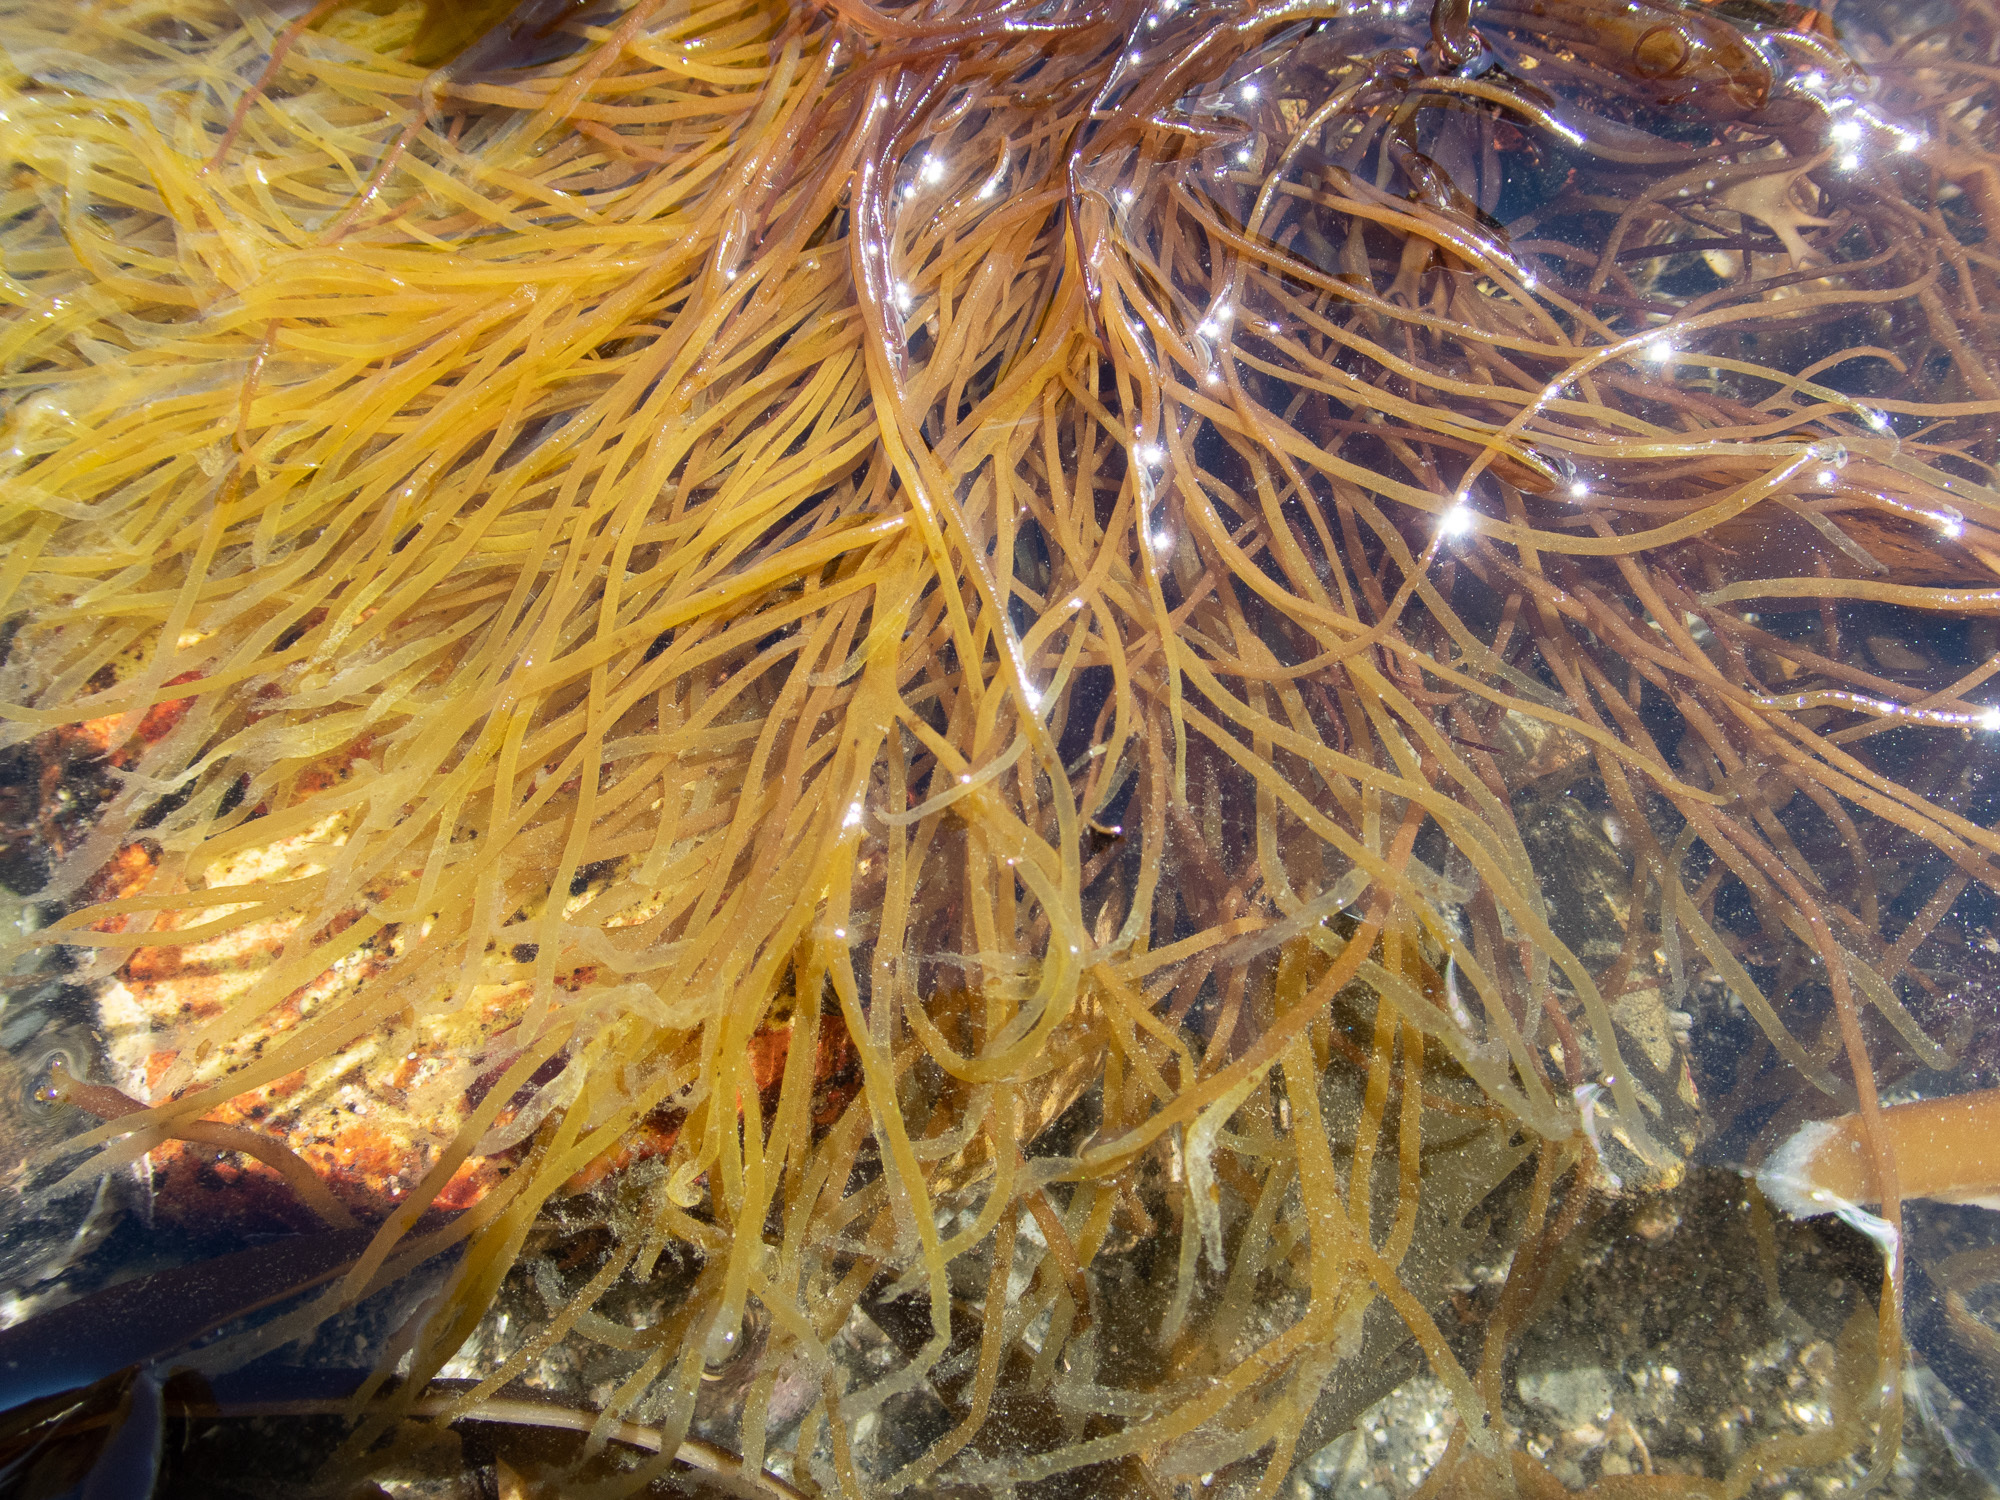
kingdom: Chromista
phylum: Ochrophyta
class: Phaeophyceae
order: Ectocarpales
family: Chordariaceae
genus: Chordaria
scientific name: Chordaria flagelliformis
